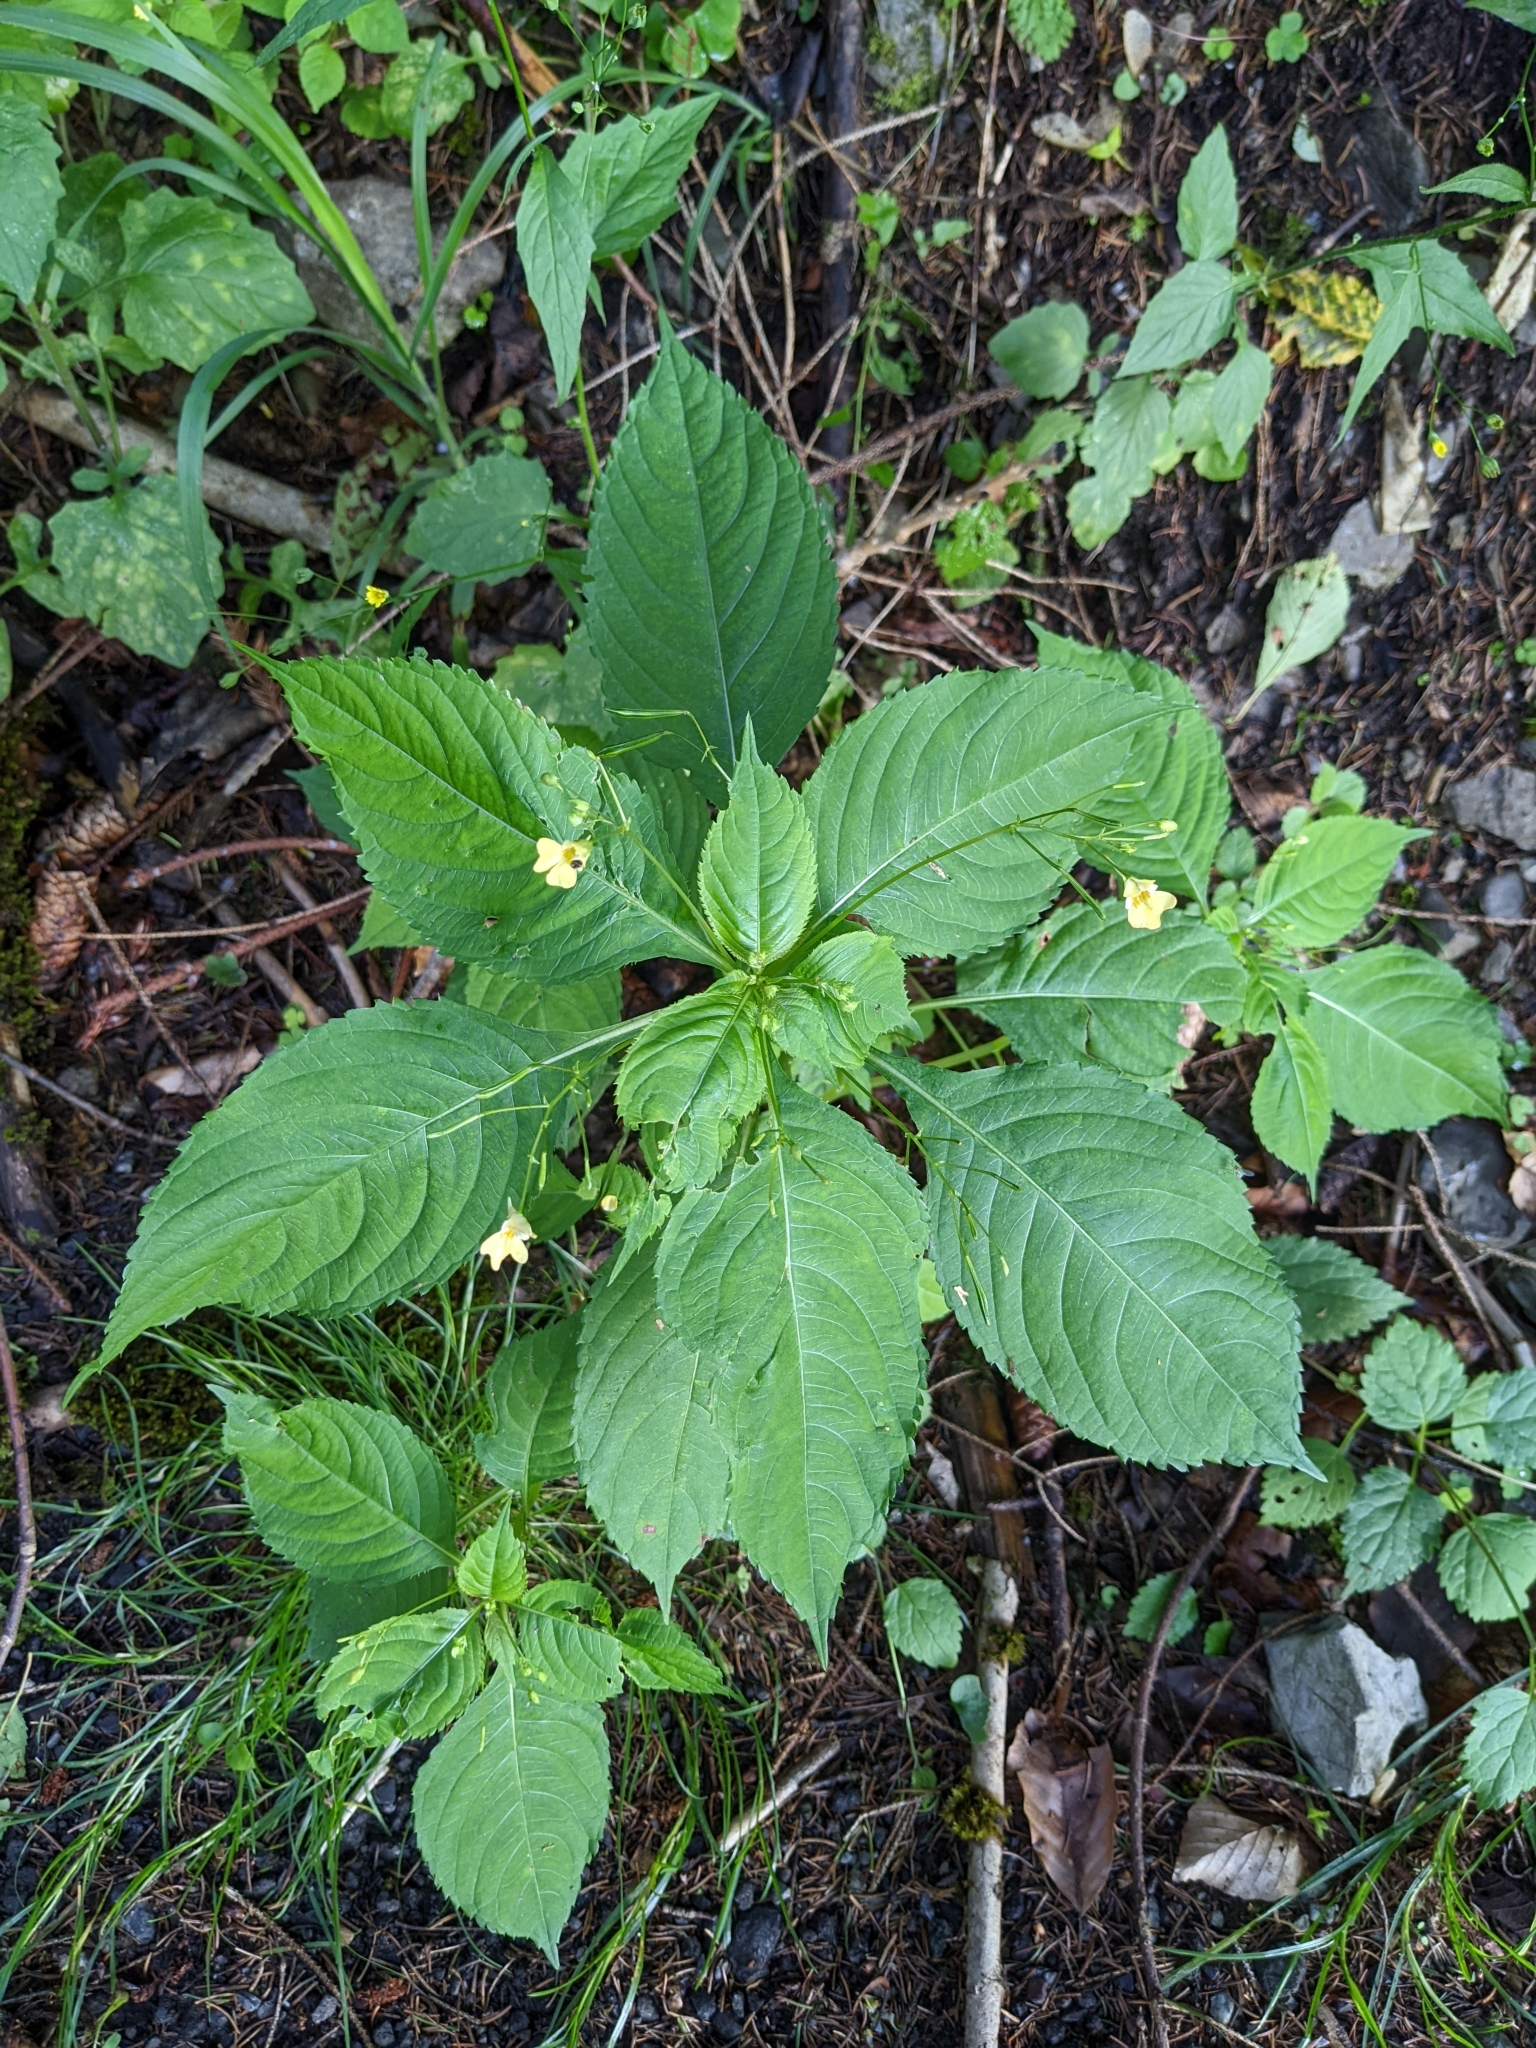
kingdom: Plantae
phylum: Tracheophyta
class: Magnoliopsida
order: Ericales
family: Balsaminaceae
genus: Impatiens
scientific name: Impatiens parviflora
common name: Small balsam
